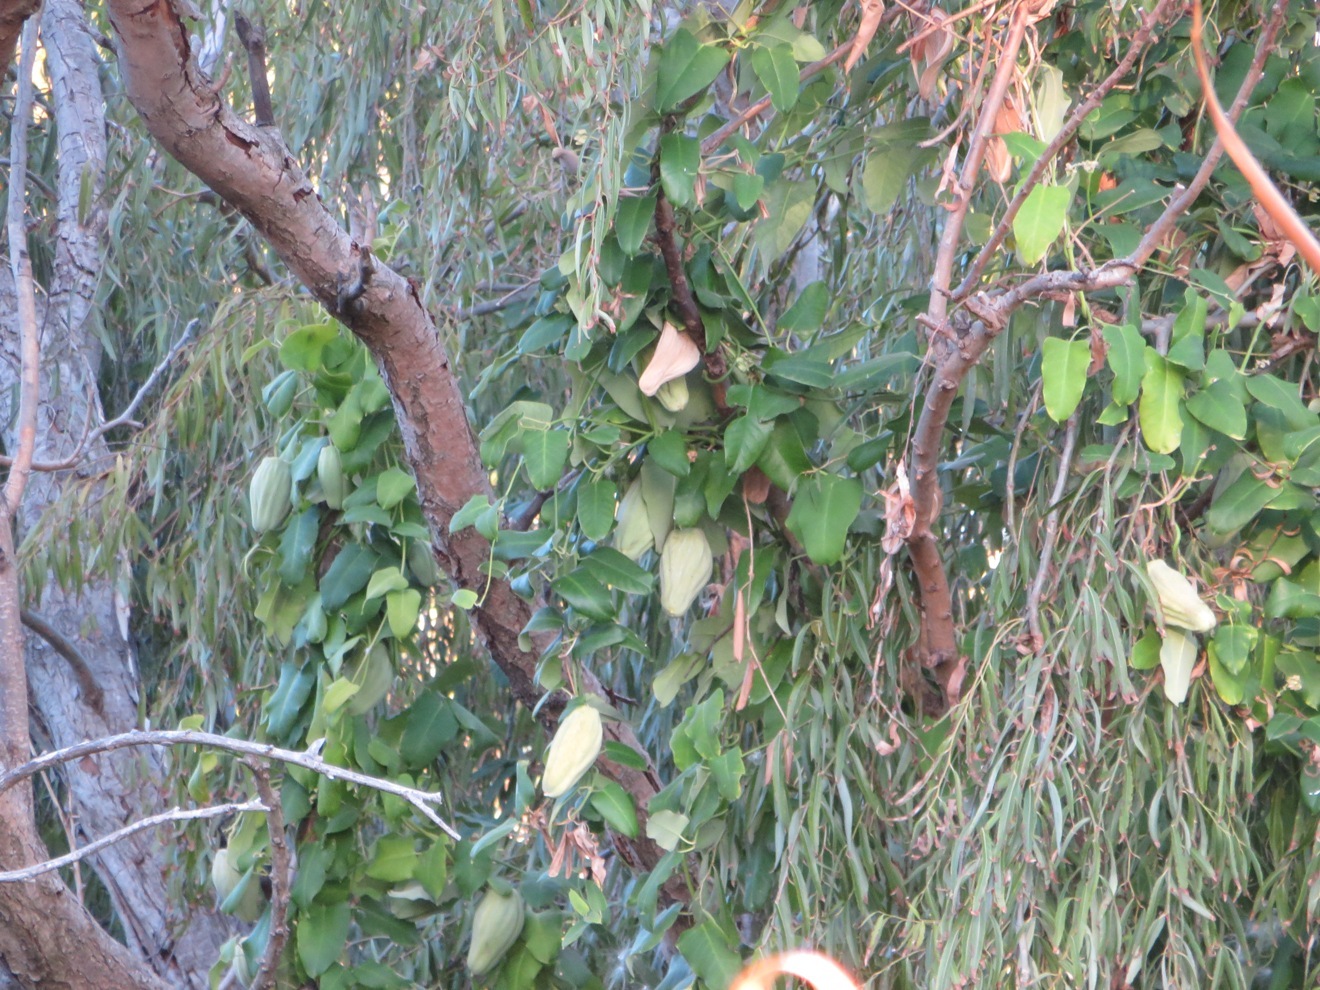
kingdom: Plantae
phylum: Tracheophyta
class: Magnoliopsida
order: Gentianales
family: Apocynaceae
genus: Araujia
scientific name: Araujia sericifera
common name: White bladderflower
